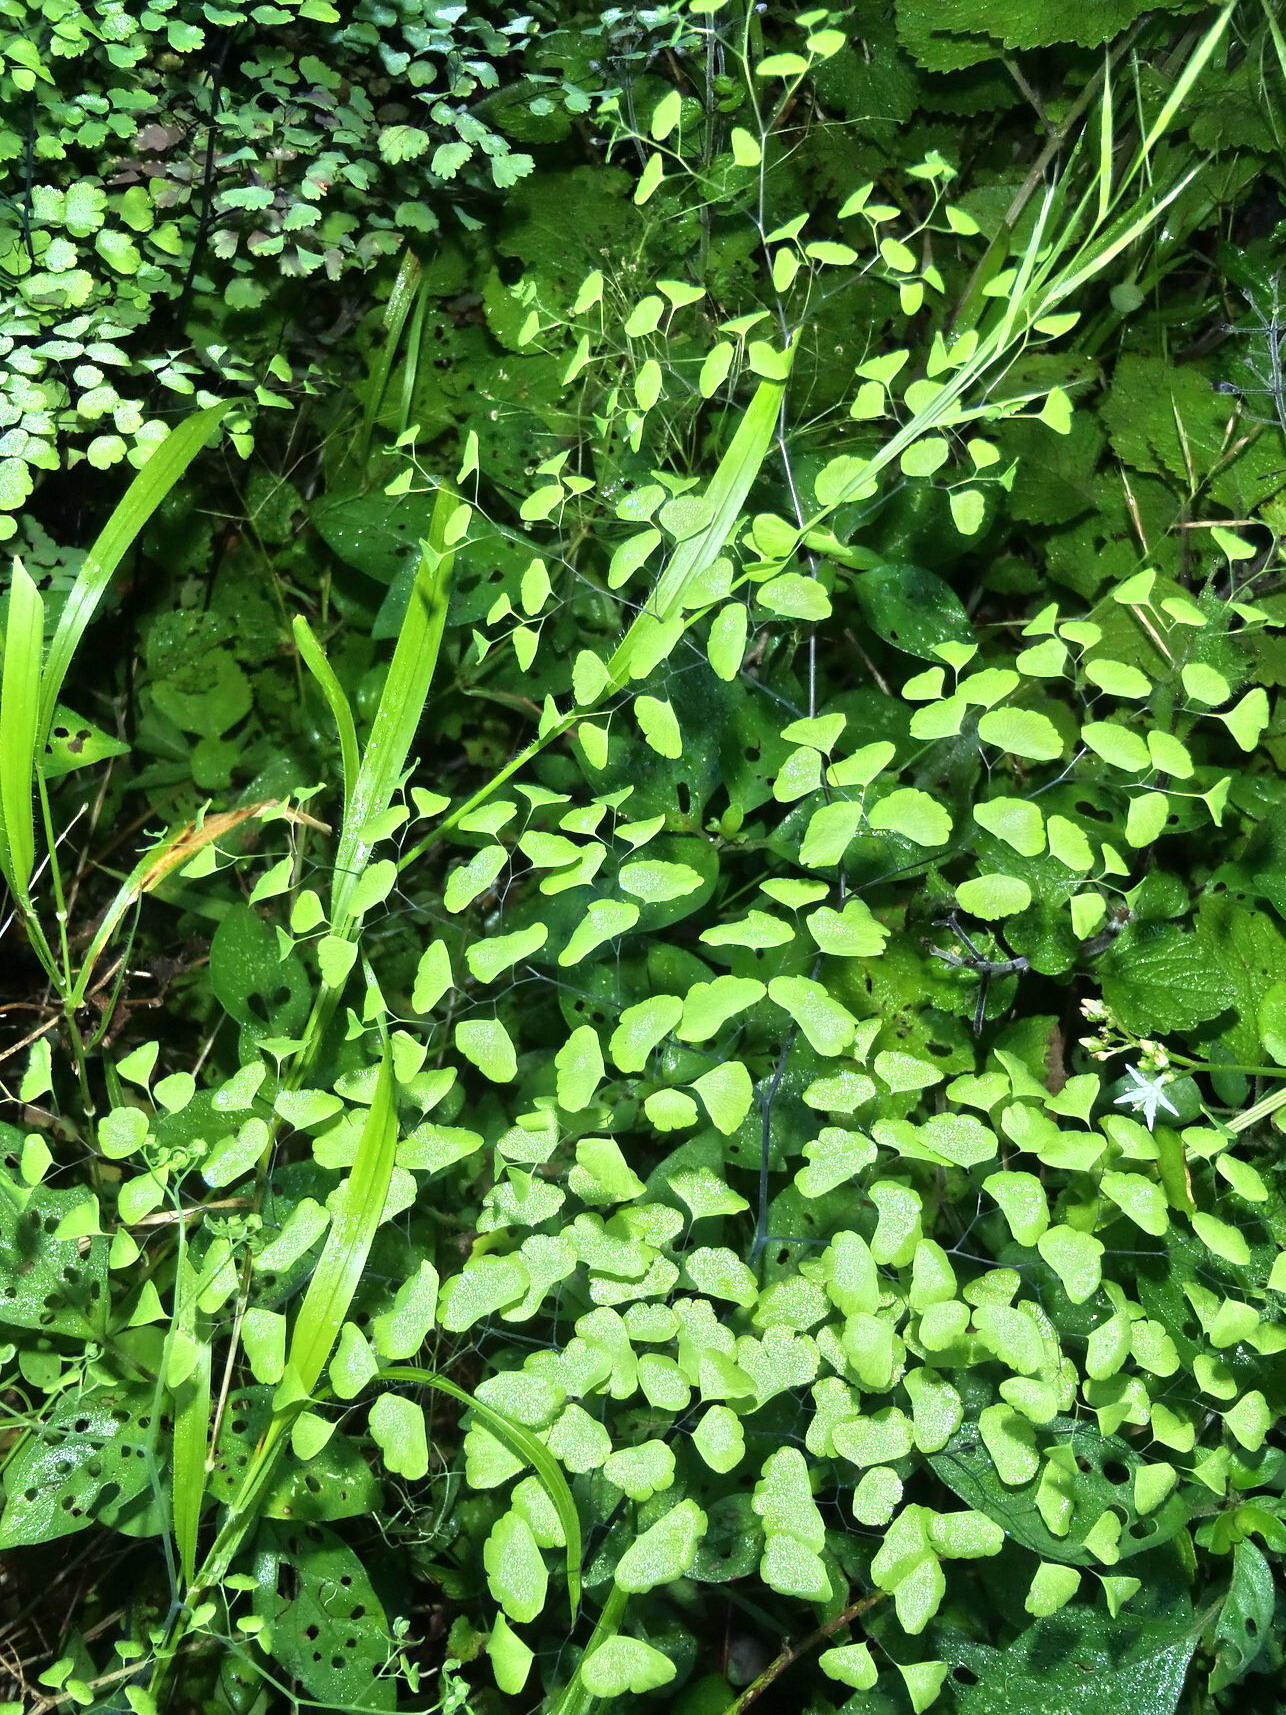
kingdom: Plantae
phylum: Tracheophyta
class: Polypodiopsida
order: Polypodiales
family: Pteridaceae
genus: Adiantum
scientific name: Adiantum poiretii
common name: Mexican maidenhair
